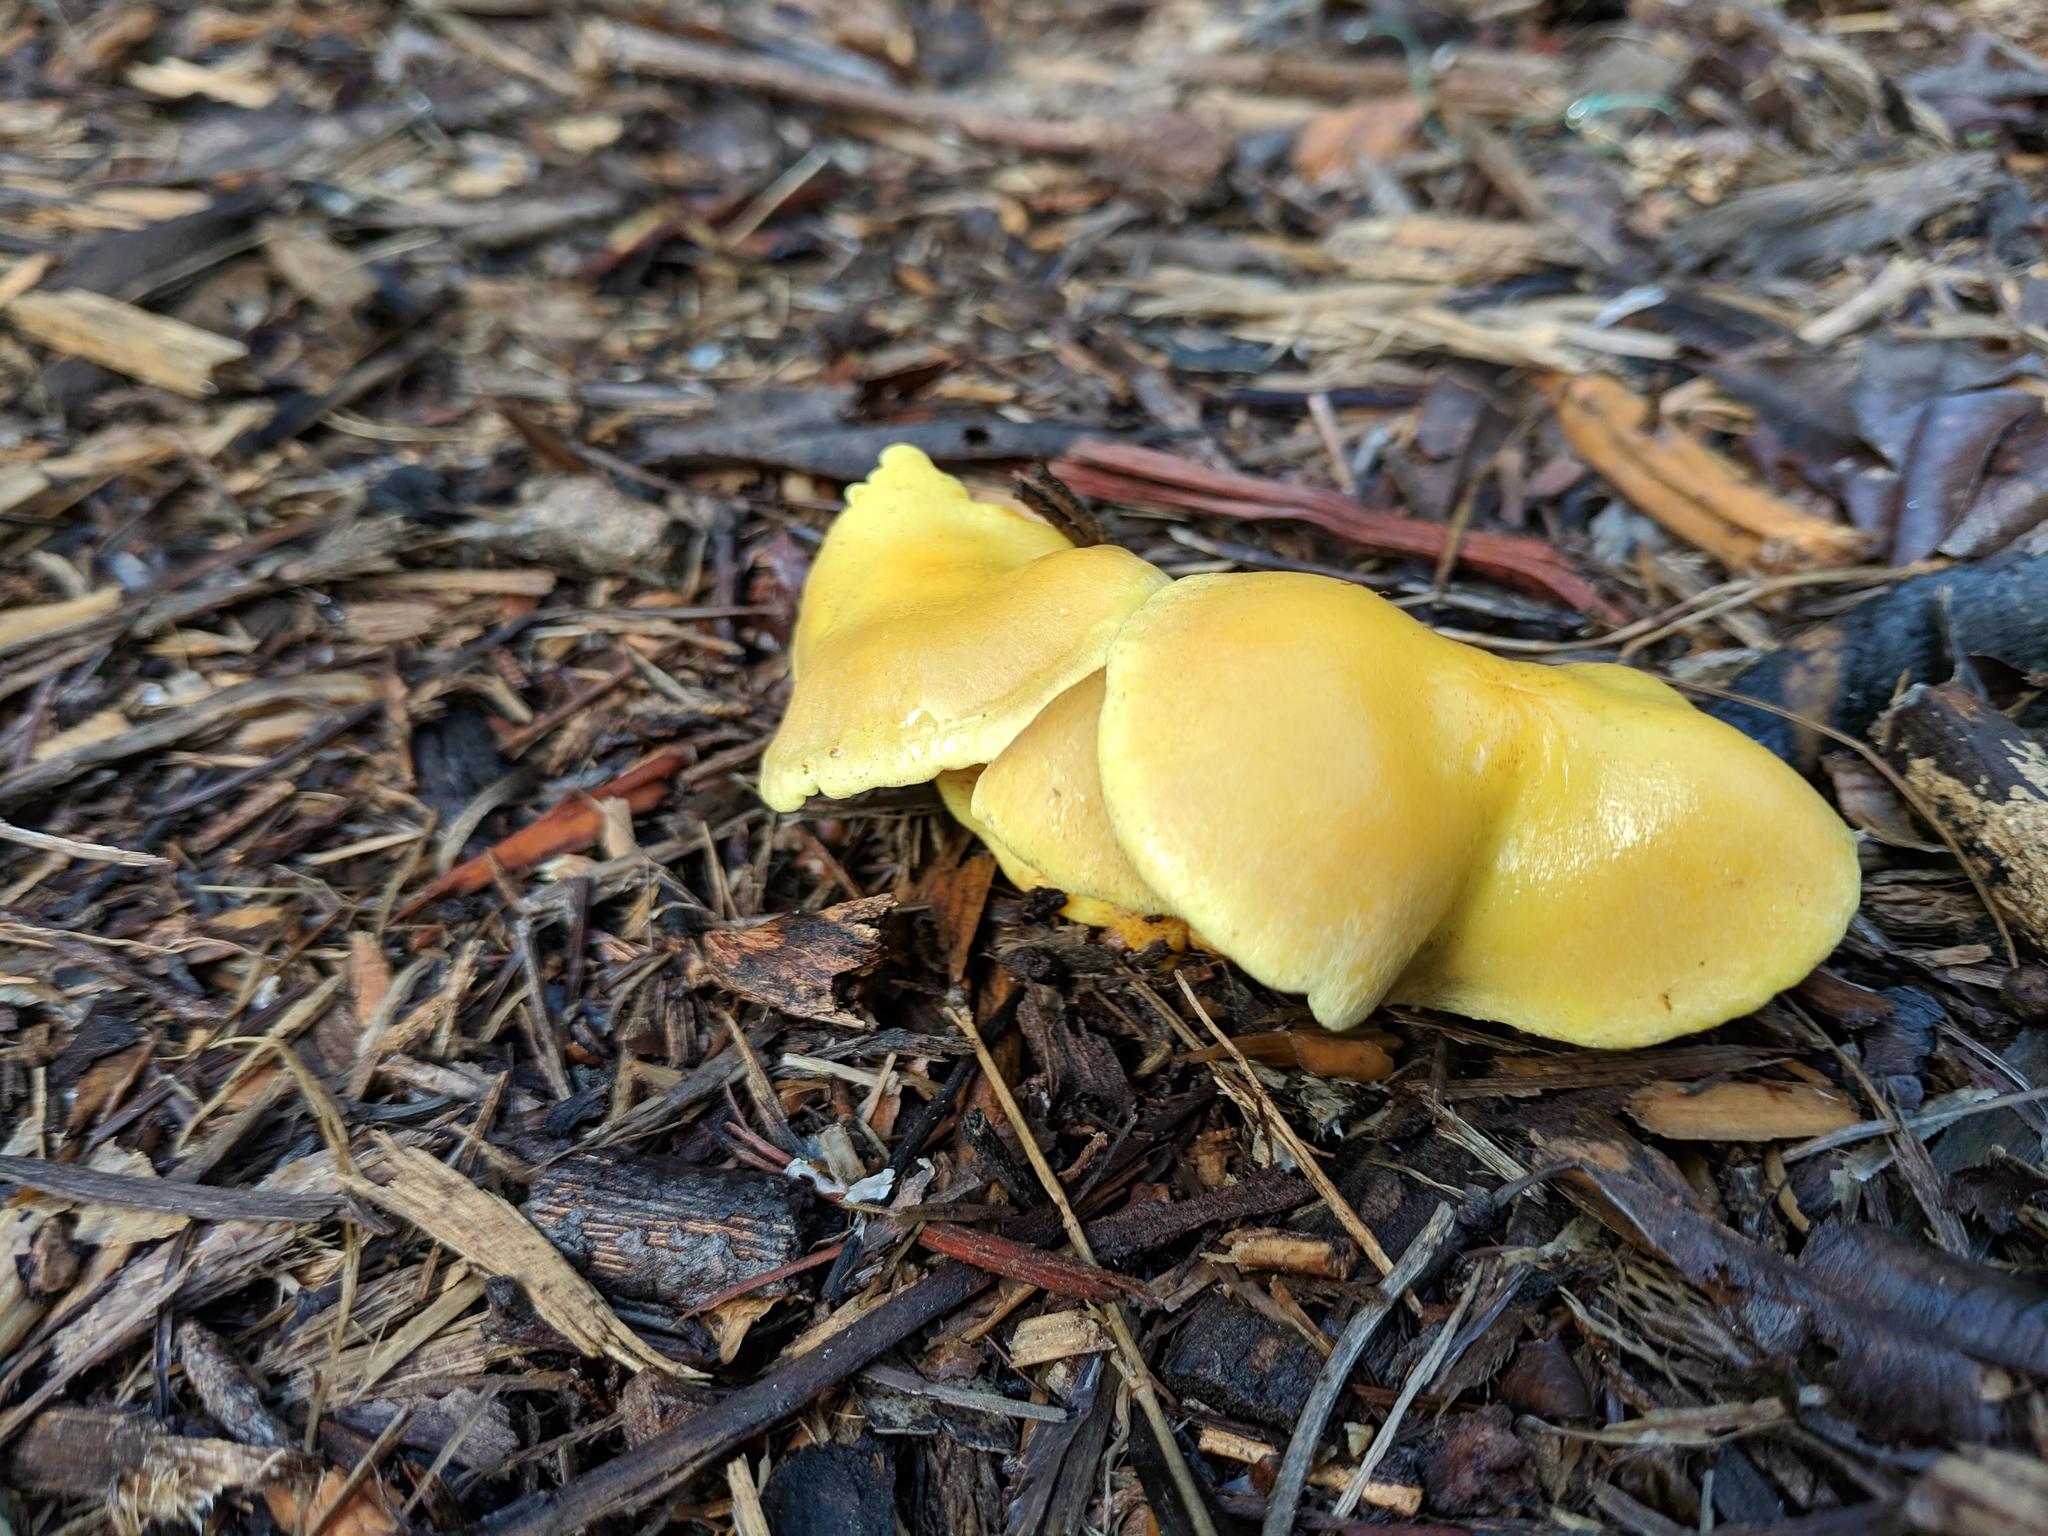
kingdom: Fungi
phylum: Basidiomycota
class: Agaricomycetes
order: Agaricales
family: Strophariaceae
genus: Hypholoma
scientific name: Hypholoma fasciculare
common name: Sulphur tuft
